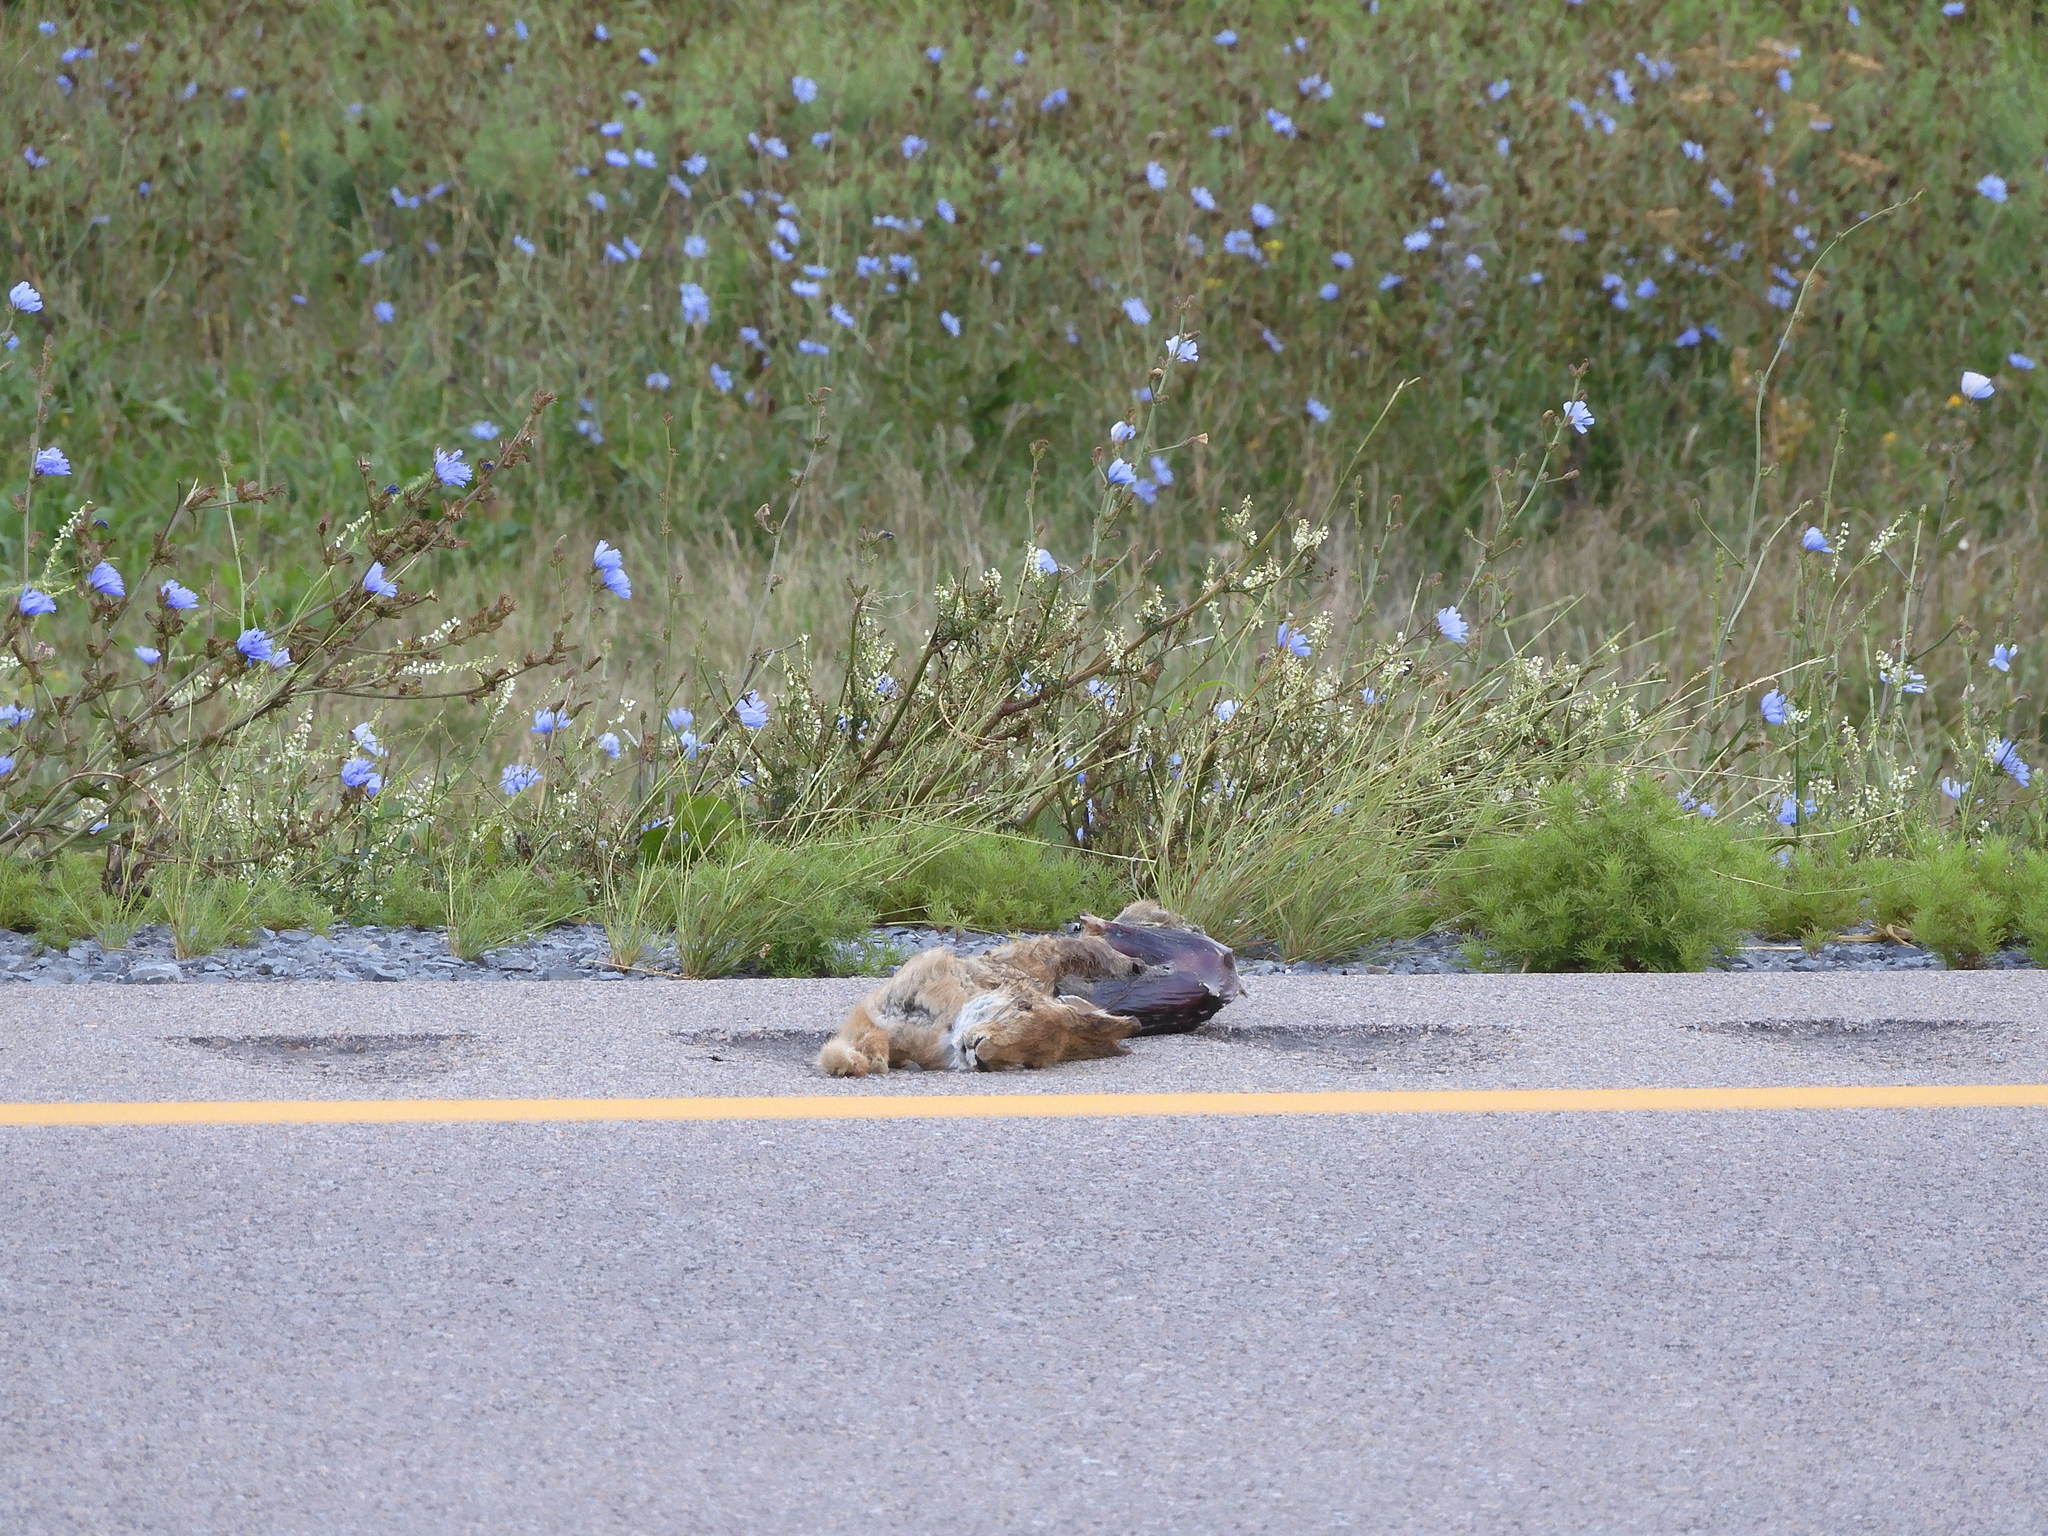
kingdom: Animalia
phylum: Chordata
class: Mammalia
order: Lagomorpha
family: Leporidae
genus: Sylvilagus
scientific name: Sylvilagus floridanus
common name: Eastern cottontail
